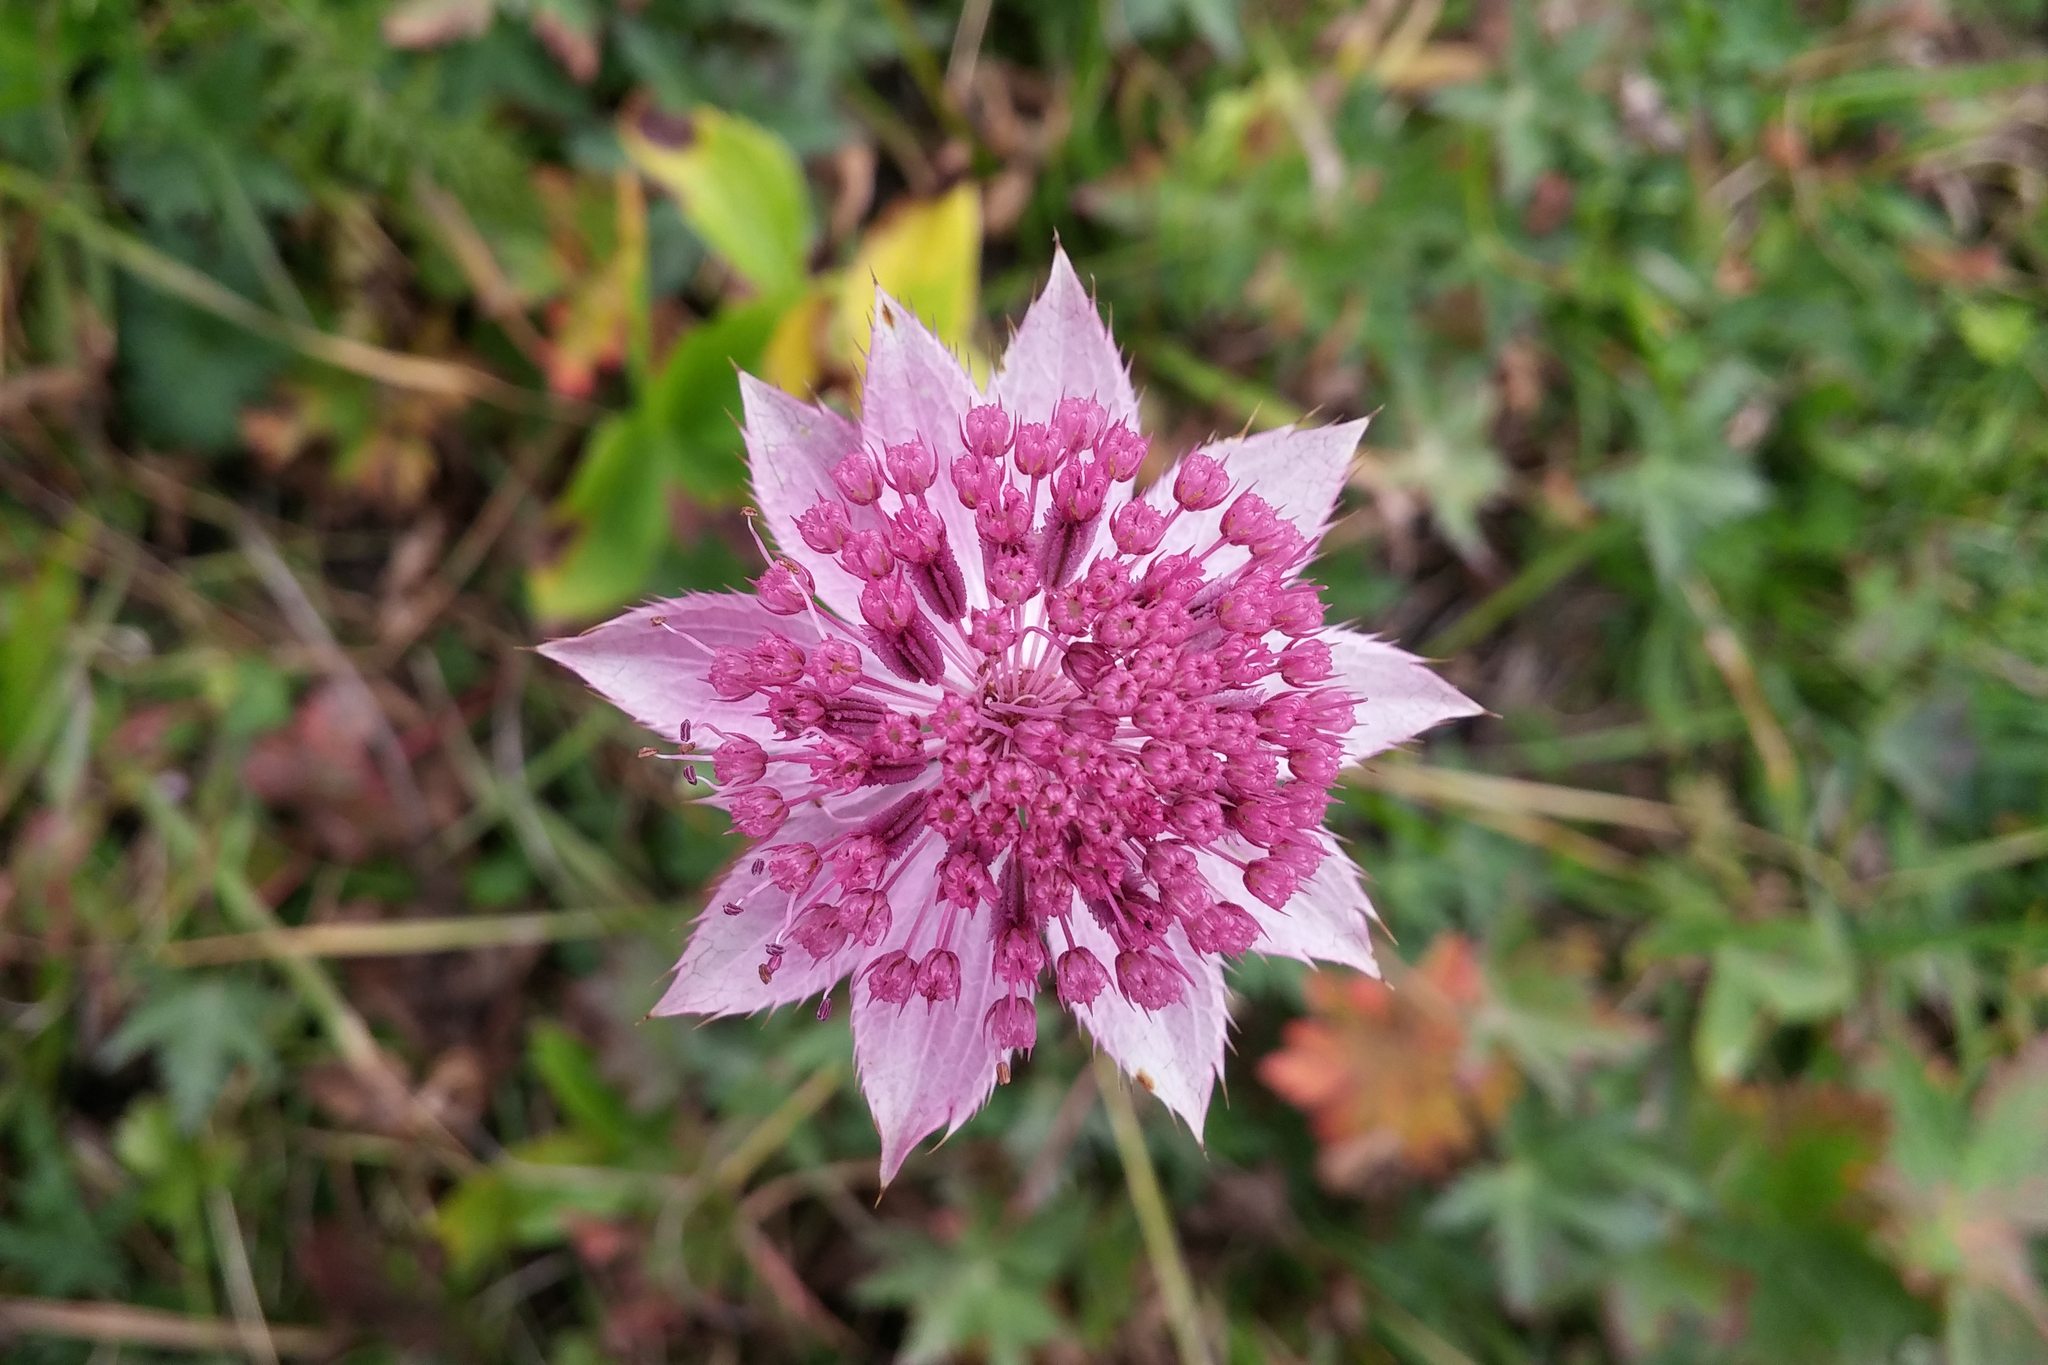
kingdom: Plantae
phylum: Tracheophyta
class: Magnoliopsida
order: Apiales
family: Apiaceae
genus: Astrantia
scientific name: Astrantia maxima
